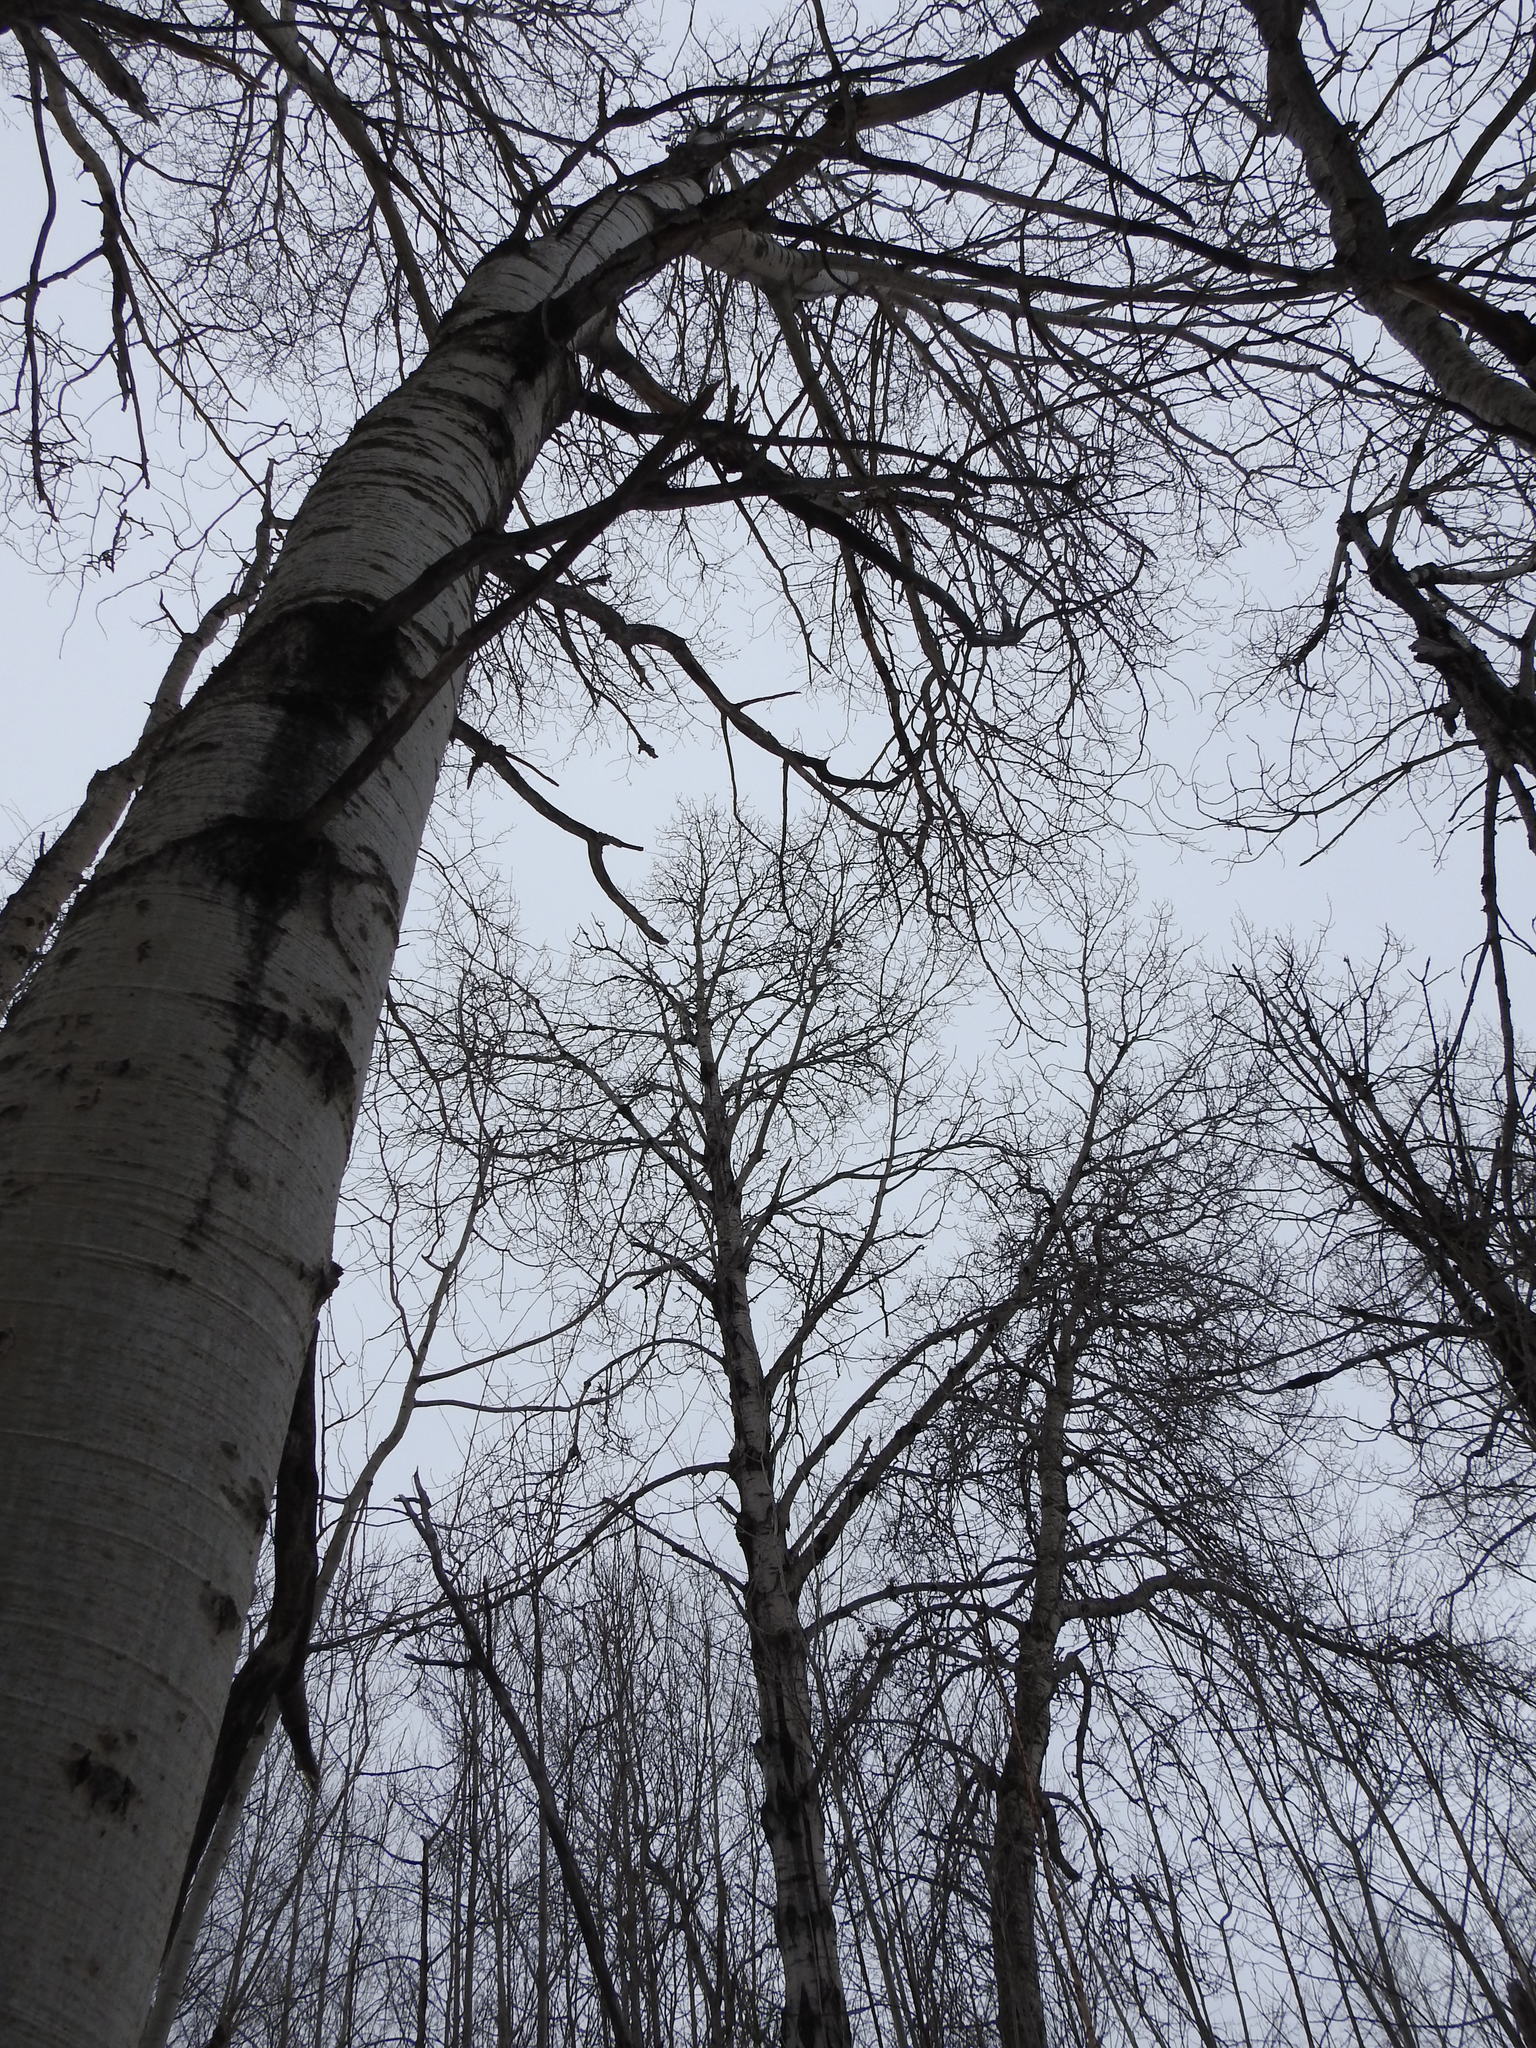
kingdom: Plantae
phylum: Tracheophyta
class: Magnoliopsida
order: Malpighiales
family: Salicaceae
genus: Populus
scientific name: Populus tremuloides
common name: Quaking aspen
